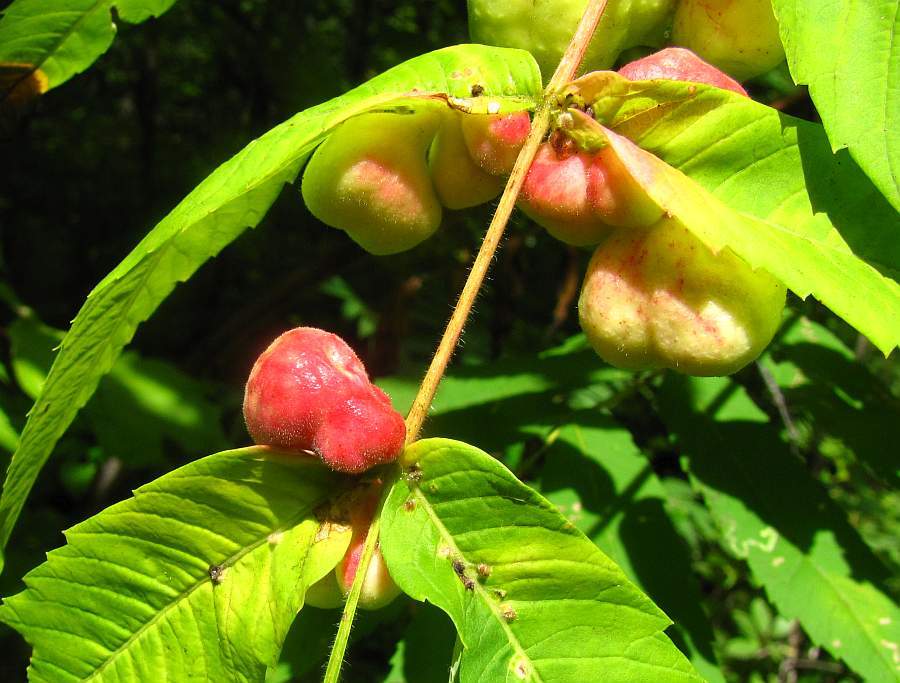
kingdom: Animalia
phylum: Arthropoda
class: Insecta
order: Hemiptera
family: Aphididae
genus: Melaphis
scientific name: Melaphis rhois
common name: Sumac gall aphid
